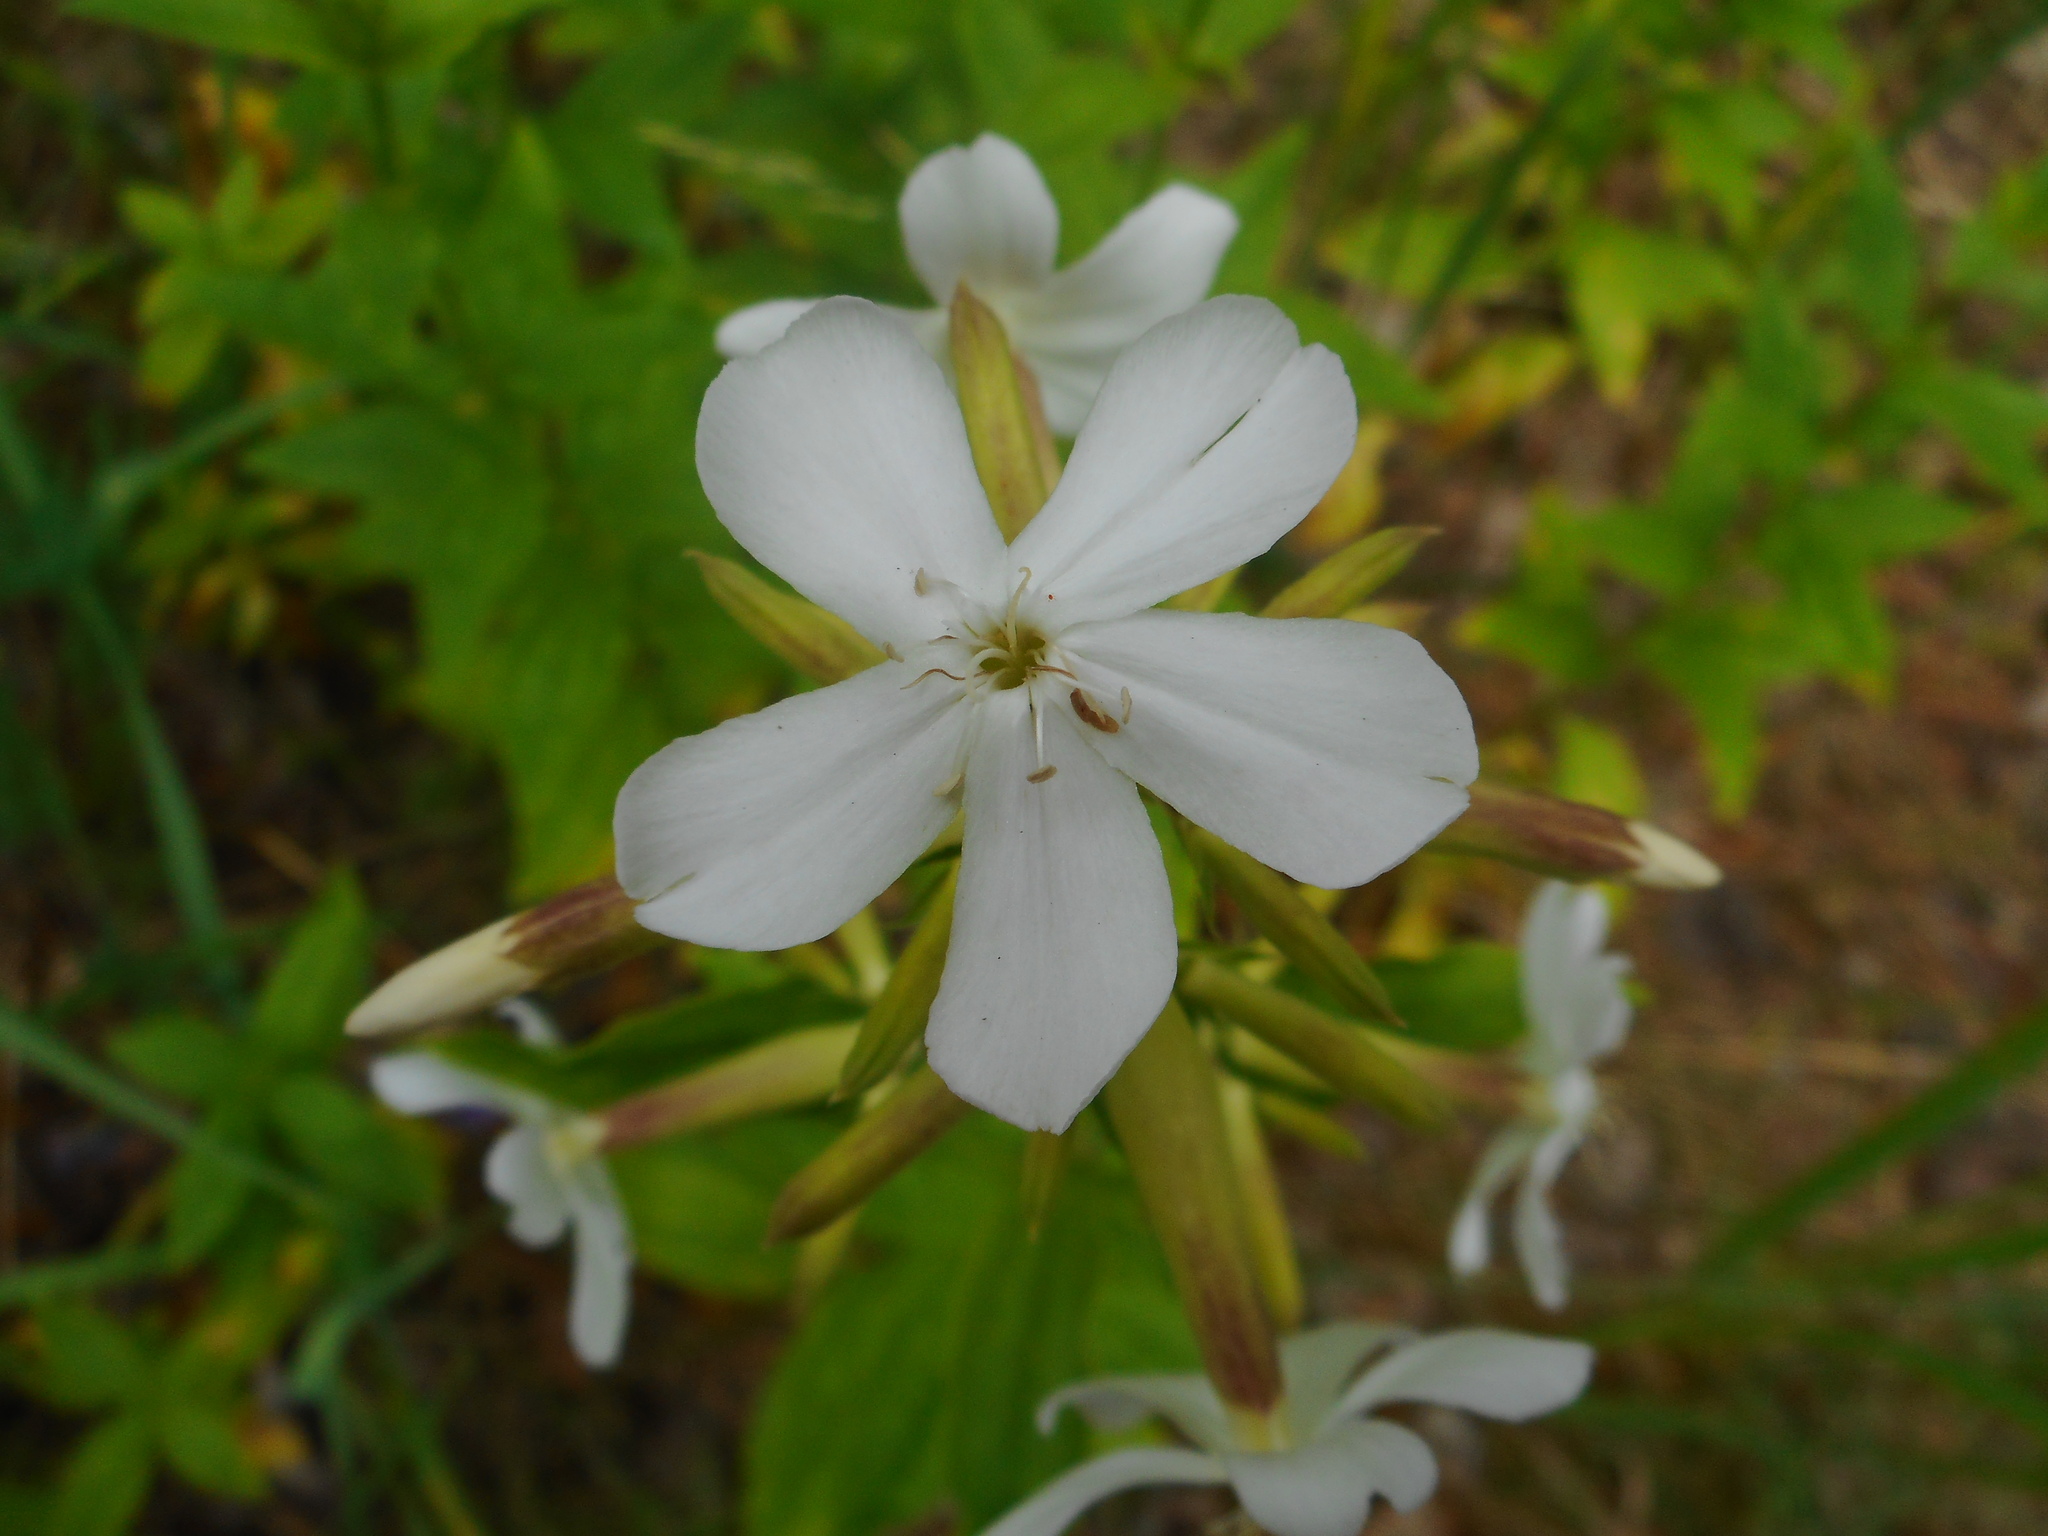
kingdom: Plantae
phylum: Tracheophyta
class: Magnoliopsida
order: Caryophyllales
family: Caryophyllaceae
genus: Saponaria
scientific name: Saponaria officinalis
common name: Soapwort
